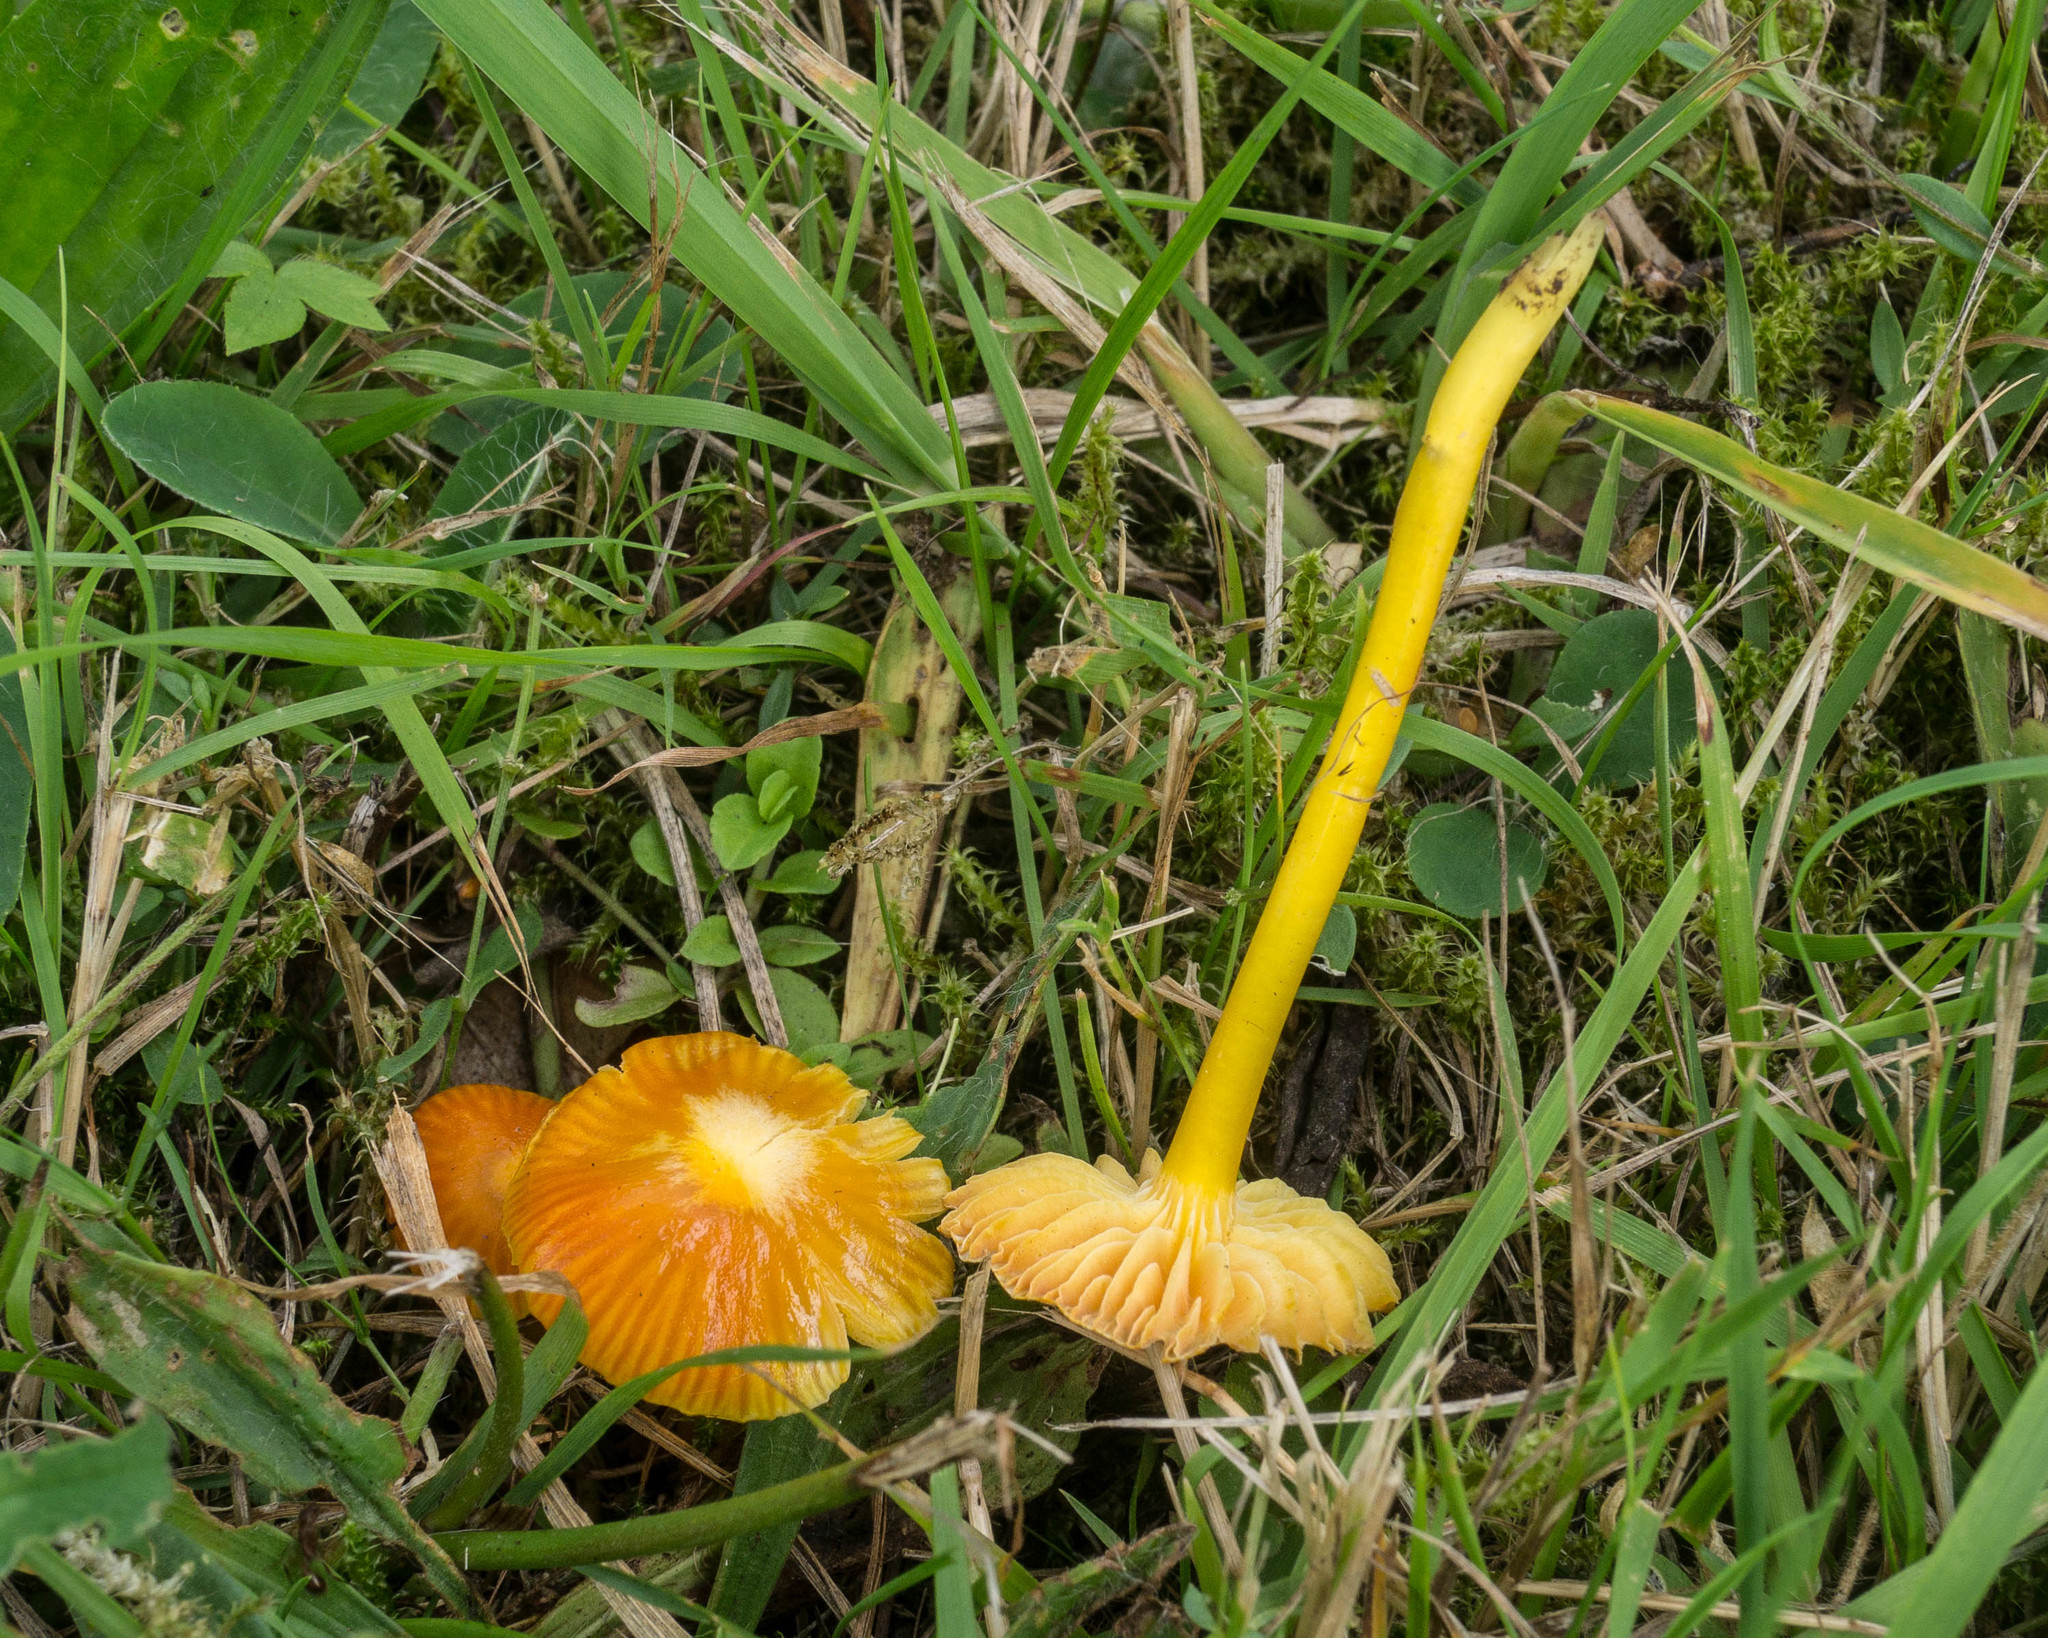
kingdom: Fungi
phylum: Basidiomycota
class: Agaricomycetes
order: Agaricales
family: Hygrophoraceae
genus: Hygrocybe
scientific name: Hygrocybe glutinipes
